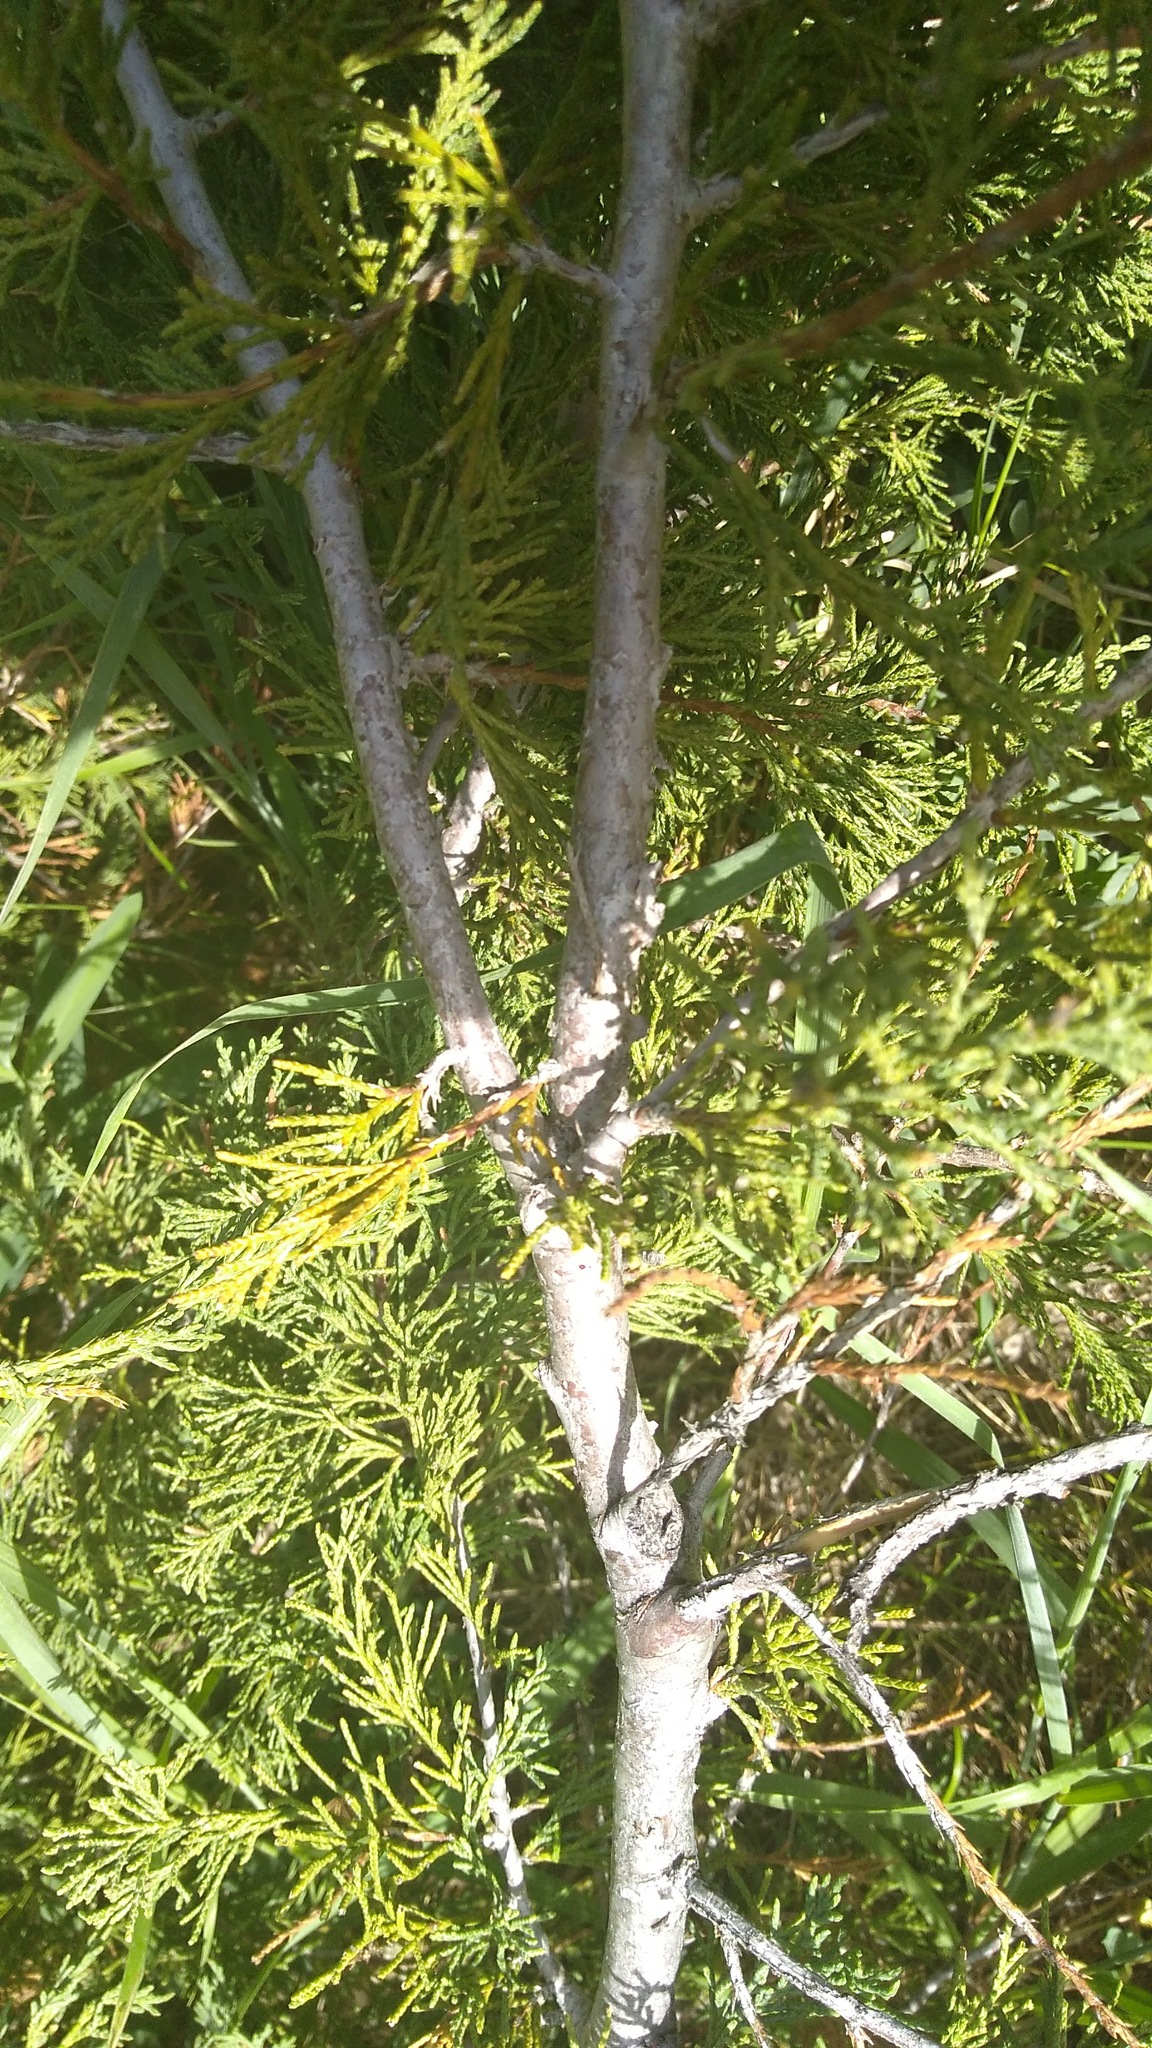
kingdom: Plantae
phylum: Tracheophyta
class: Pinopsida
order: Pinales
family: Cupressaceae
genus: Juniperus
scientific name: Juniperus scopulorum
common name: Rocky mountain juniper
